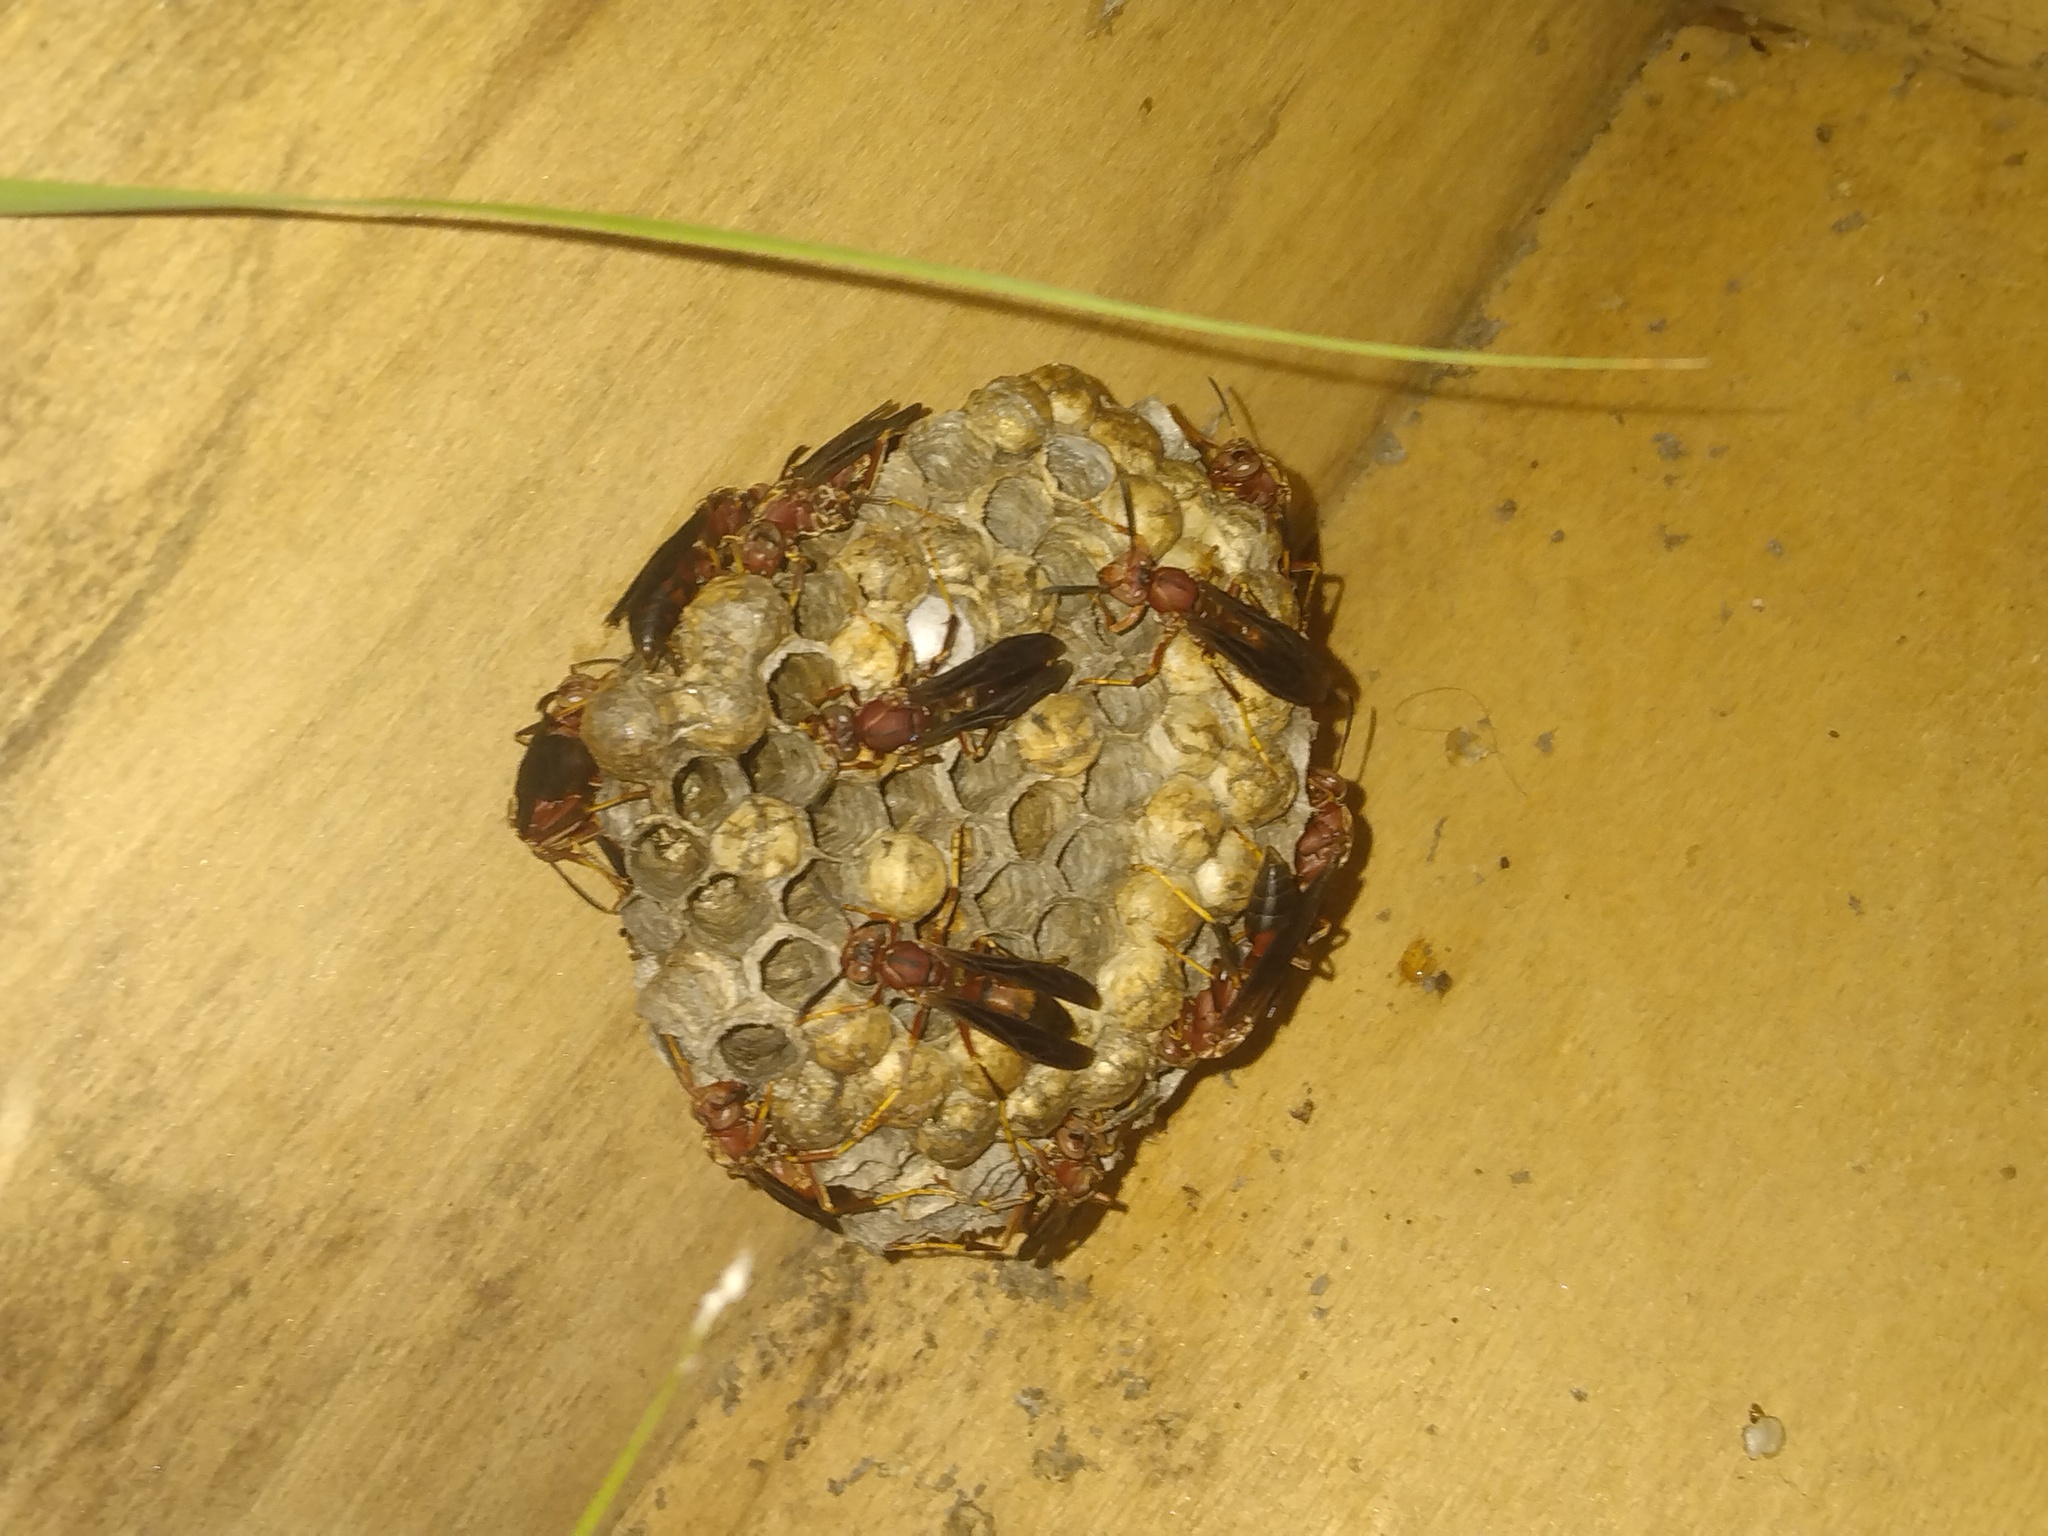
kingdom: Animalia
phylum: Arthropoda
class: Insecta
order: Hymenoptera
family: Eumenidae
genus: Polistes
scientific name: Polistes metricus
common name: Metric paper wasp
